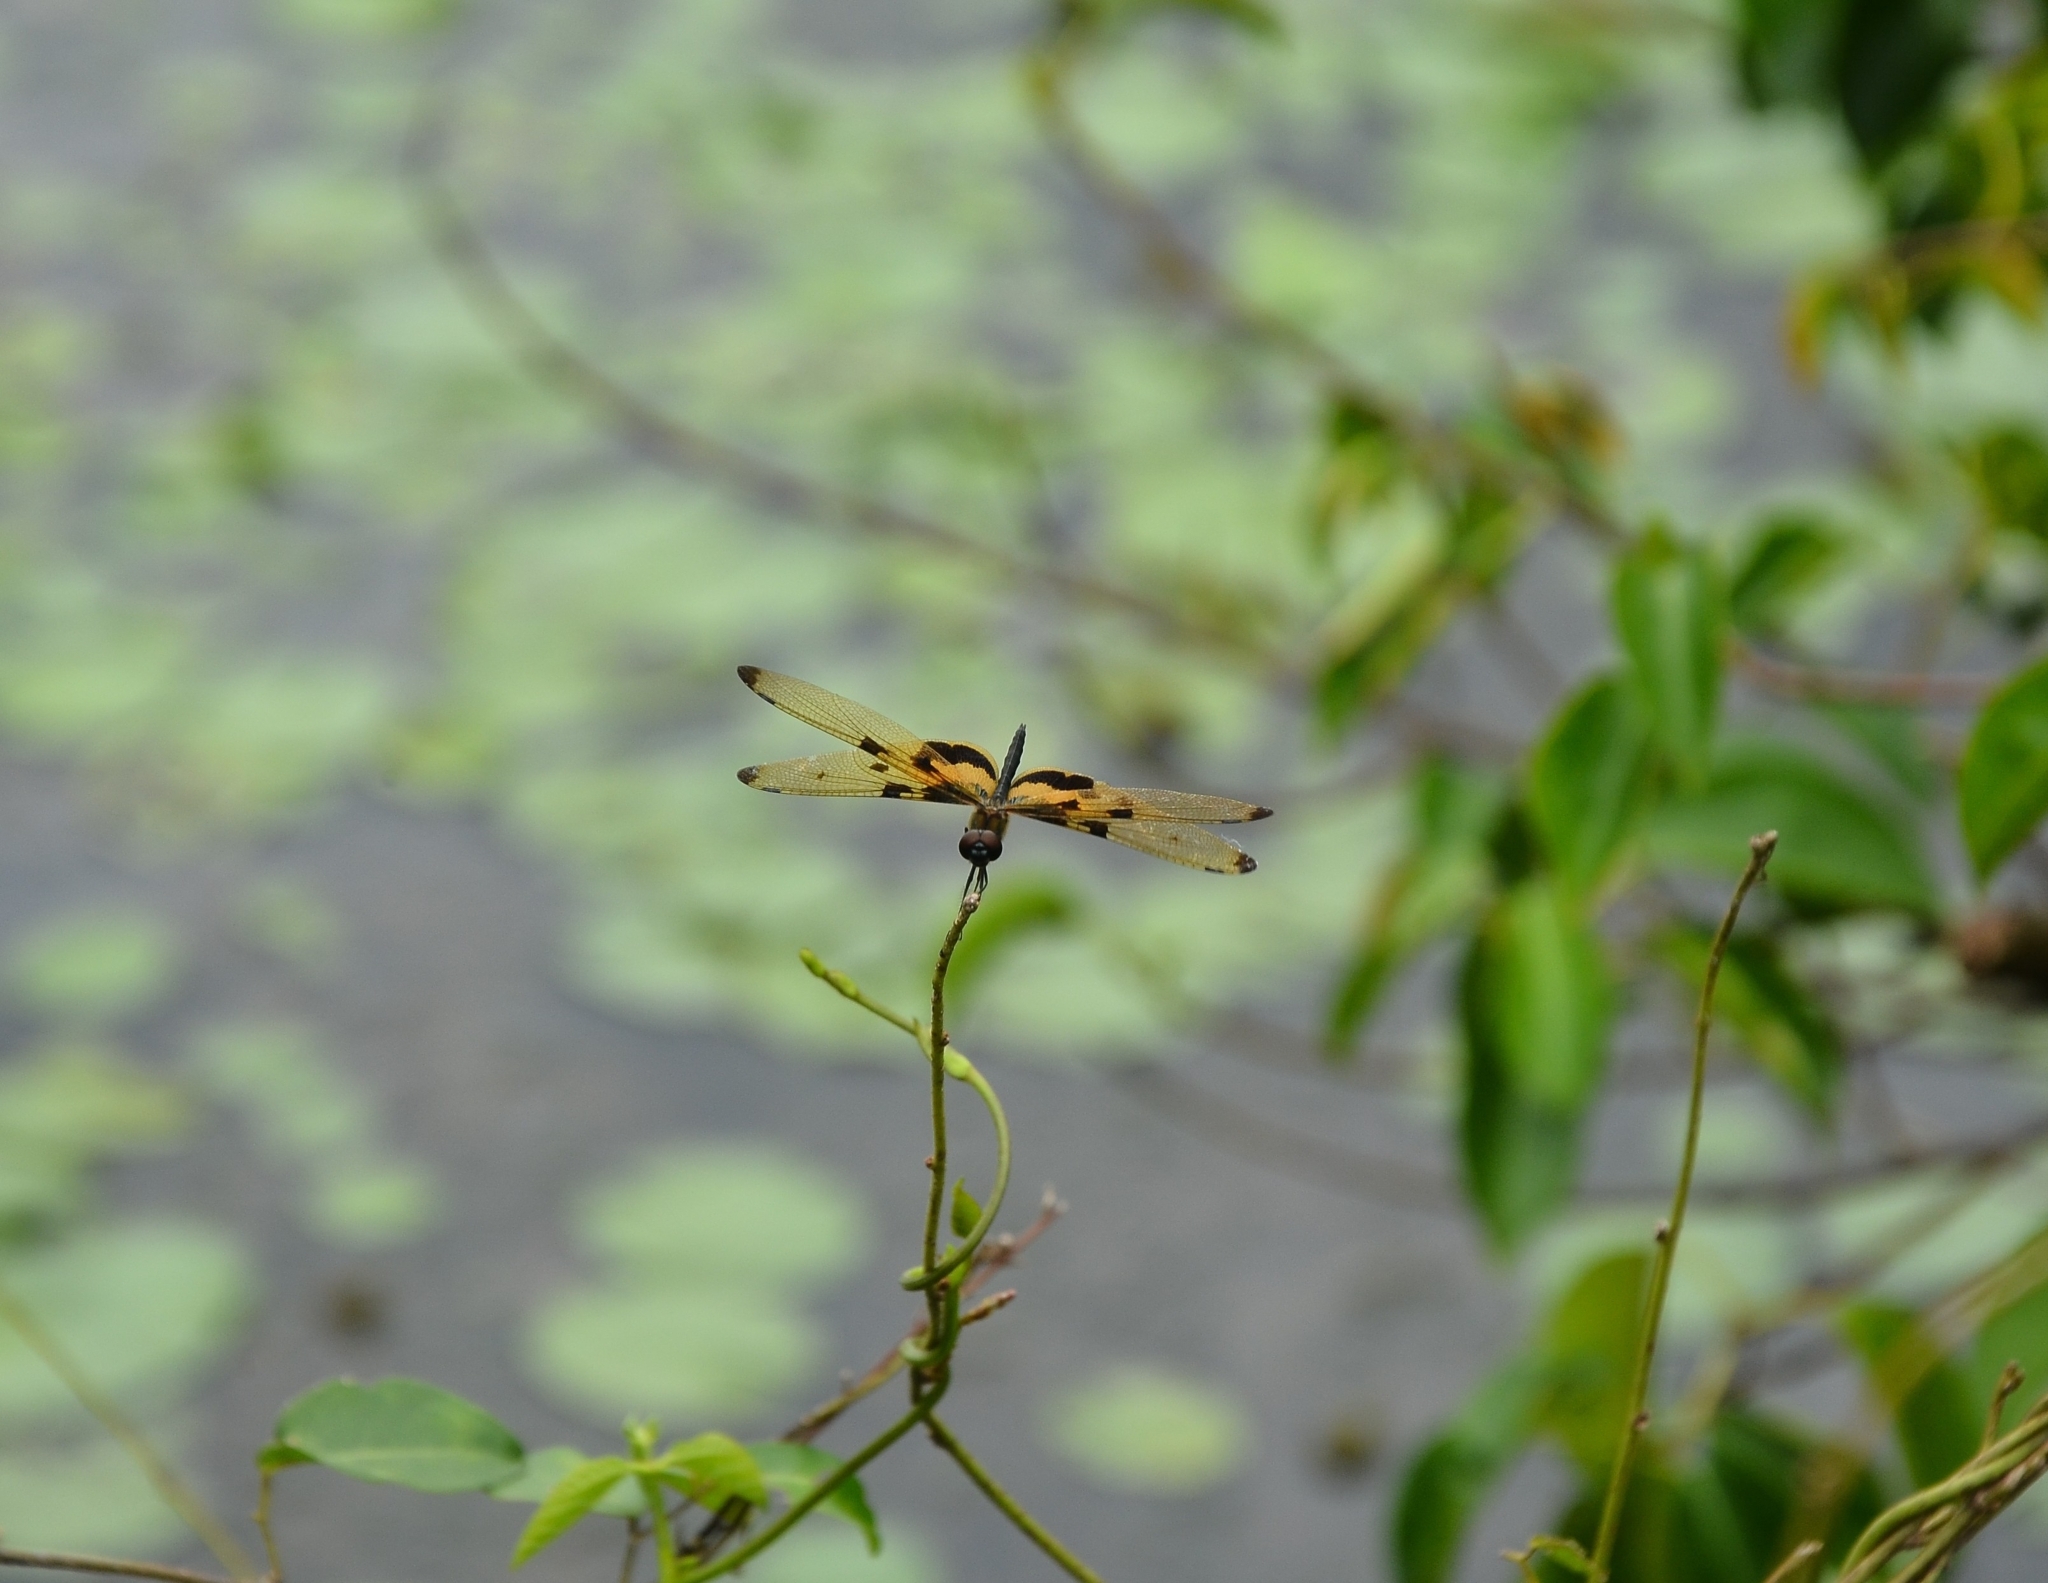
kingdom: Animalia
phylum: Arthropoda
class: Insecta
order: Odonata
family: Libellulidae
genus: Rhyothemis
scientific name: Rhyothemis variegata
